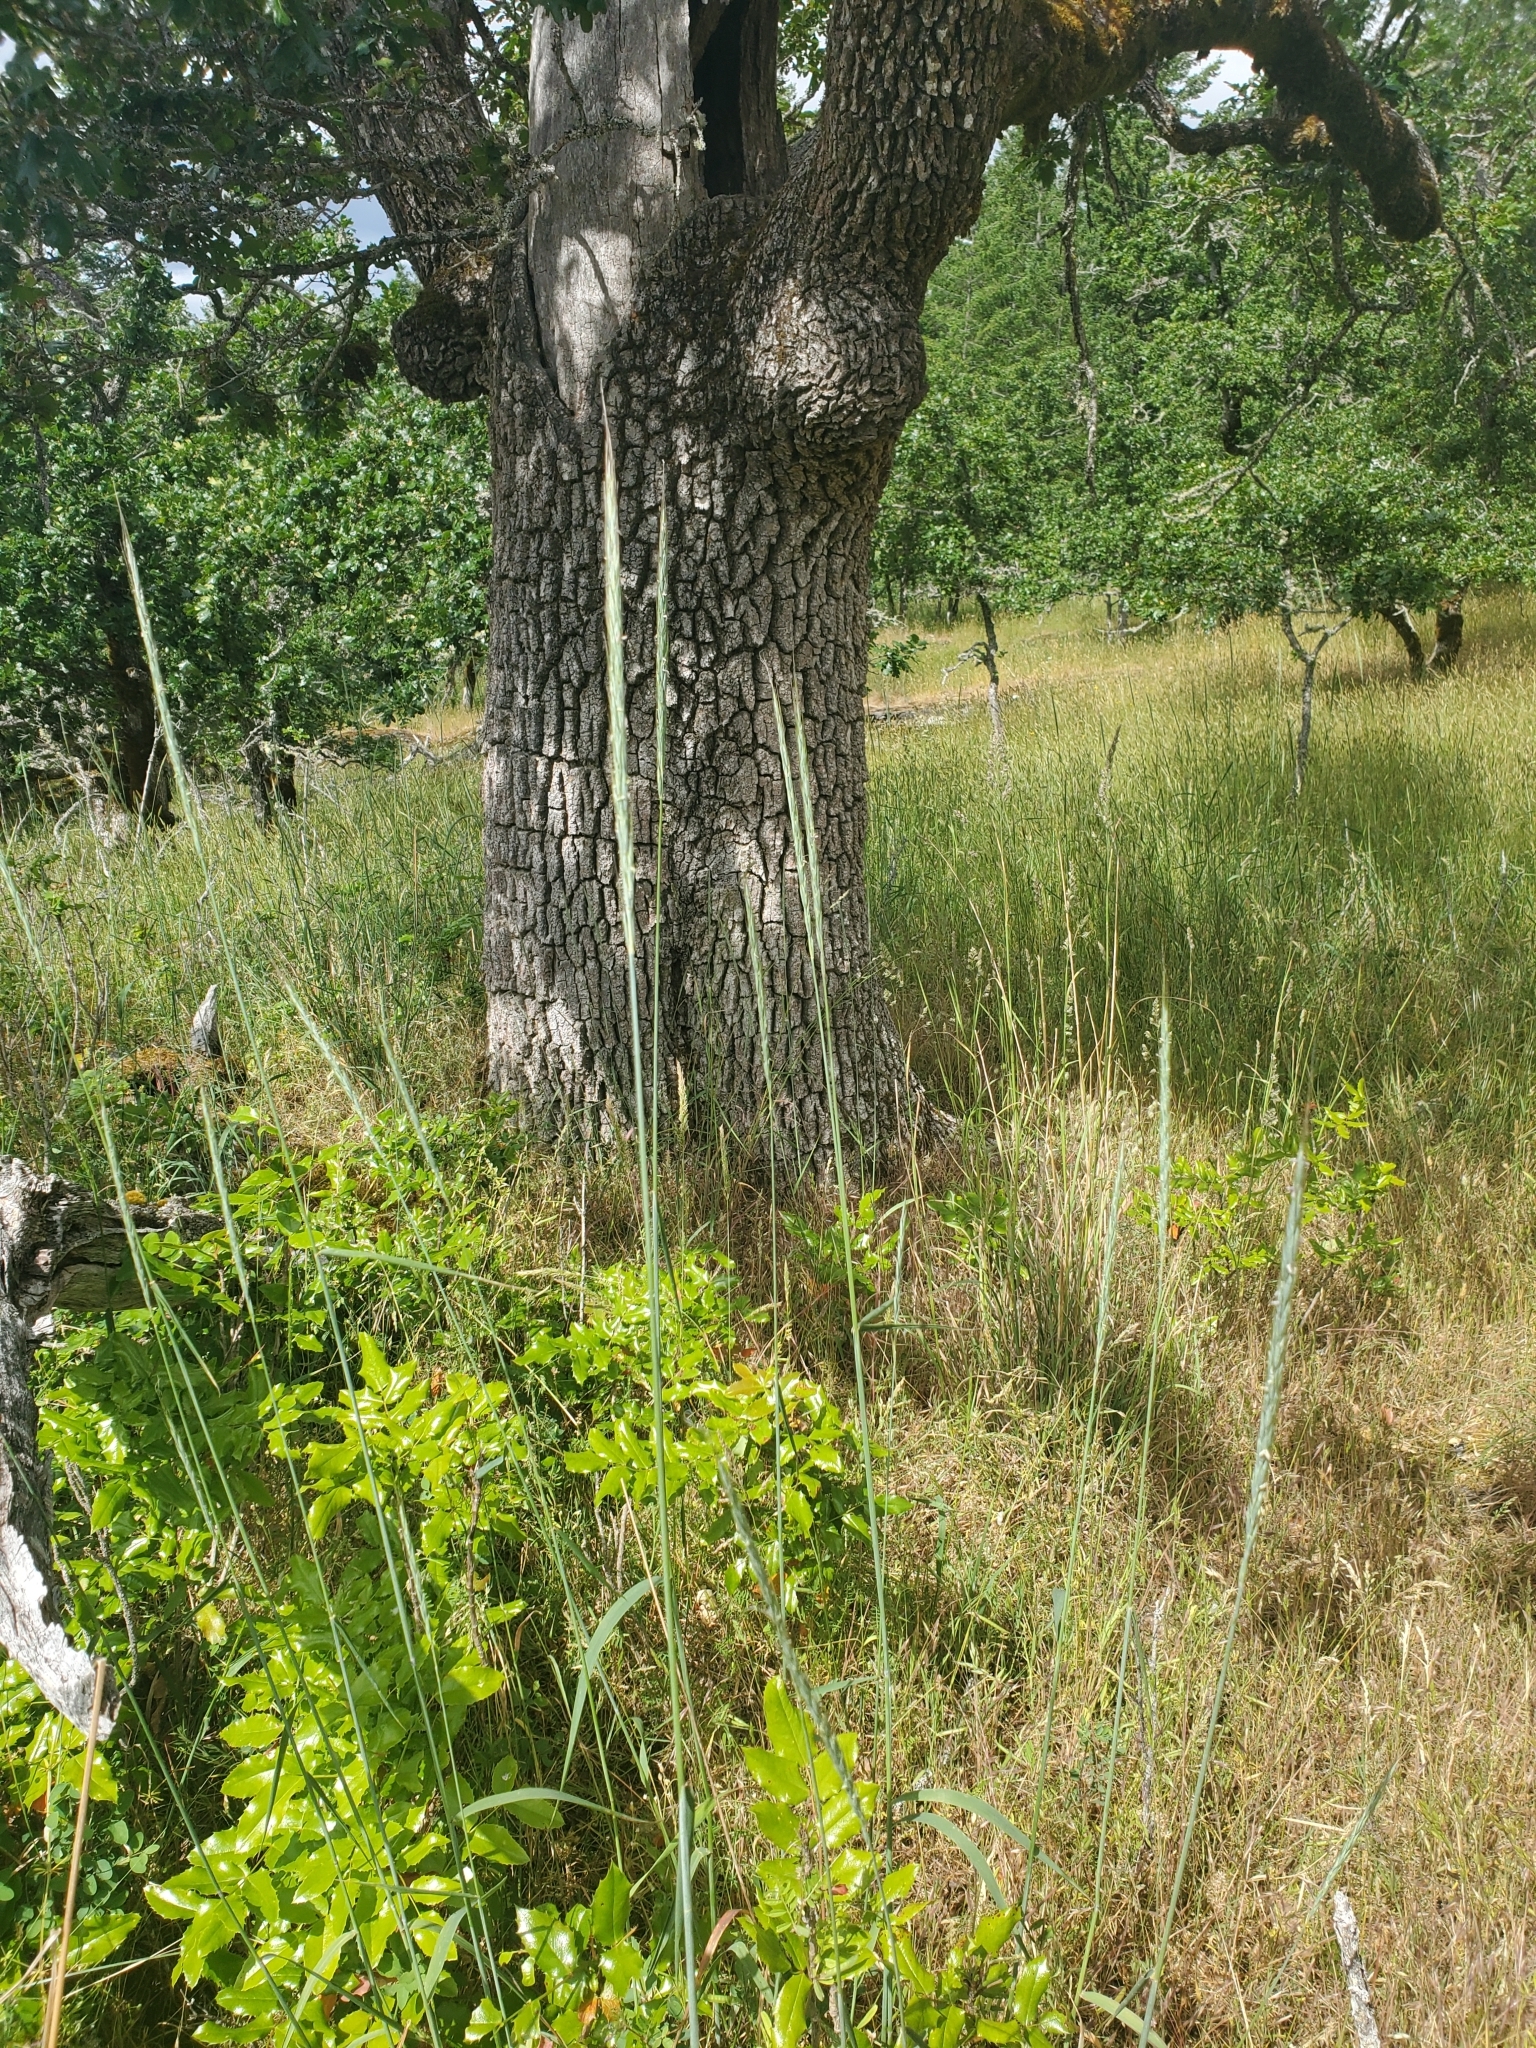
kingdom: Plantae
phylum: Tracheophyta
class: Liliopsida
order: Poales
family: Poaceae
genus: Elymus
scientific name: Elymus glaucus
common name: Blue wild rye
